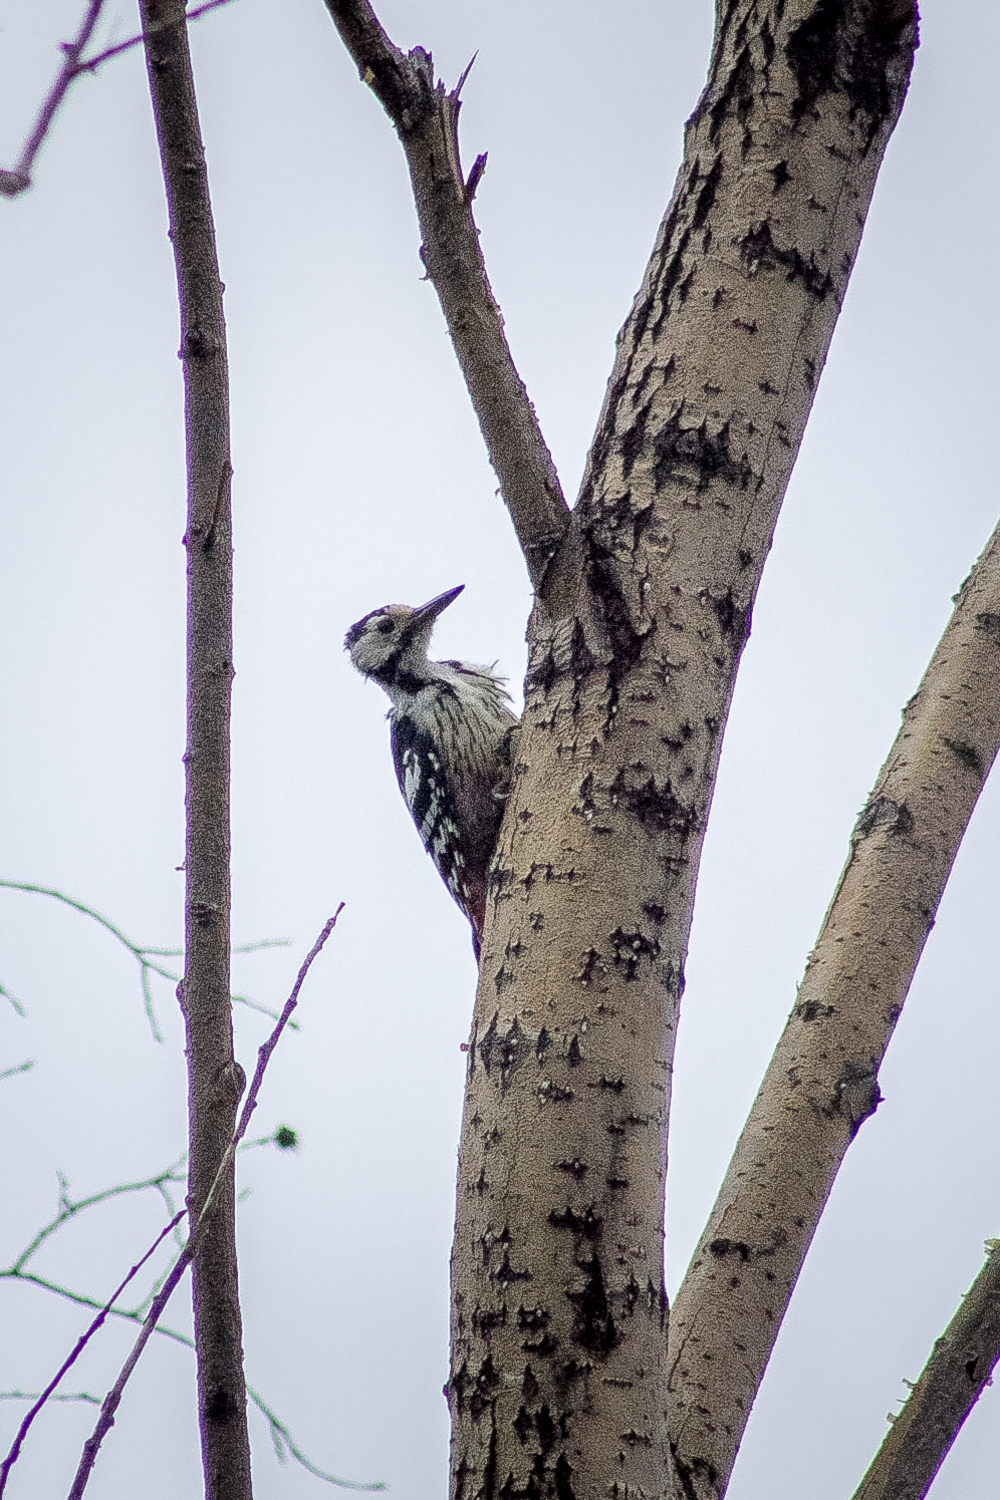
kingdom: Animalia
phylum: Chordata
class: Aves
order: Piciformes
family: Picidae
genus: Dendrocopos
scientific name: Dendrocopos leucotos
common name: White-backed woodpecker
